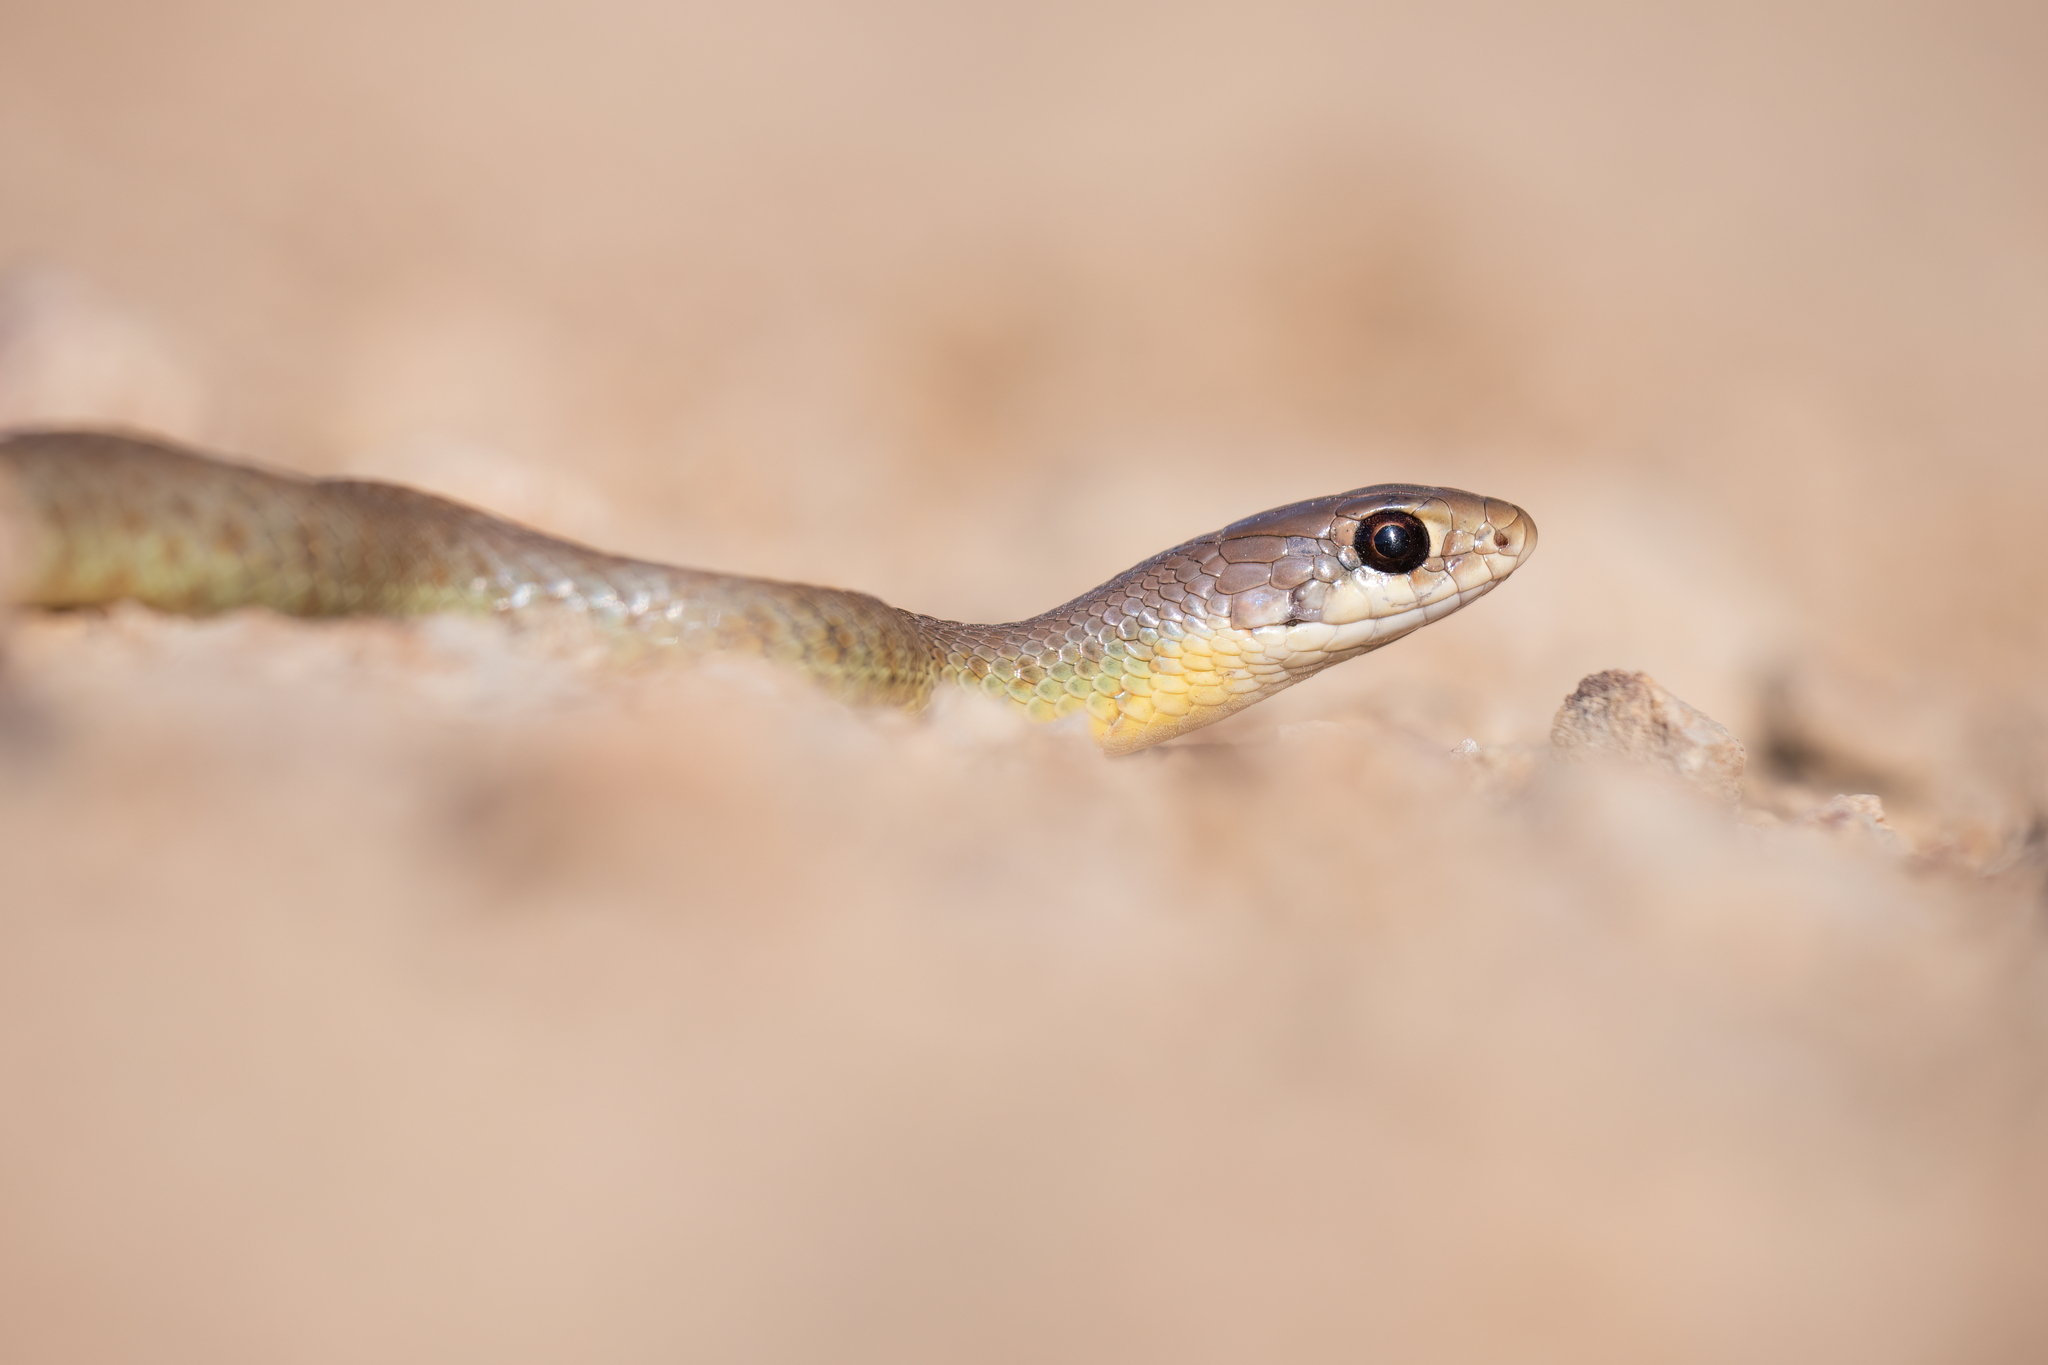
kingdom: Animalia
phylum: Chordata
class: Squamata
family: Colubridae
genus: Coluber
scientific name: Coluber constrictor
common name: Eastern racer
